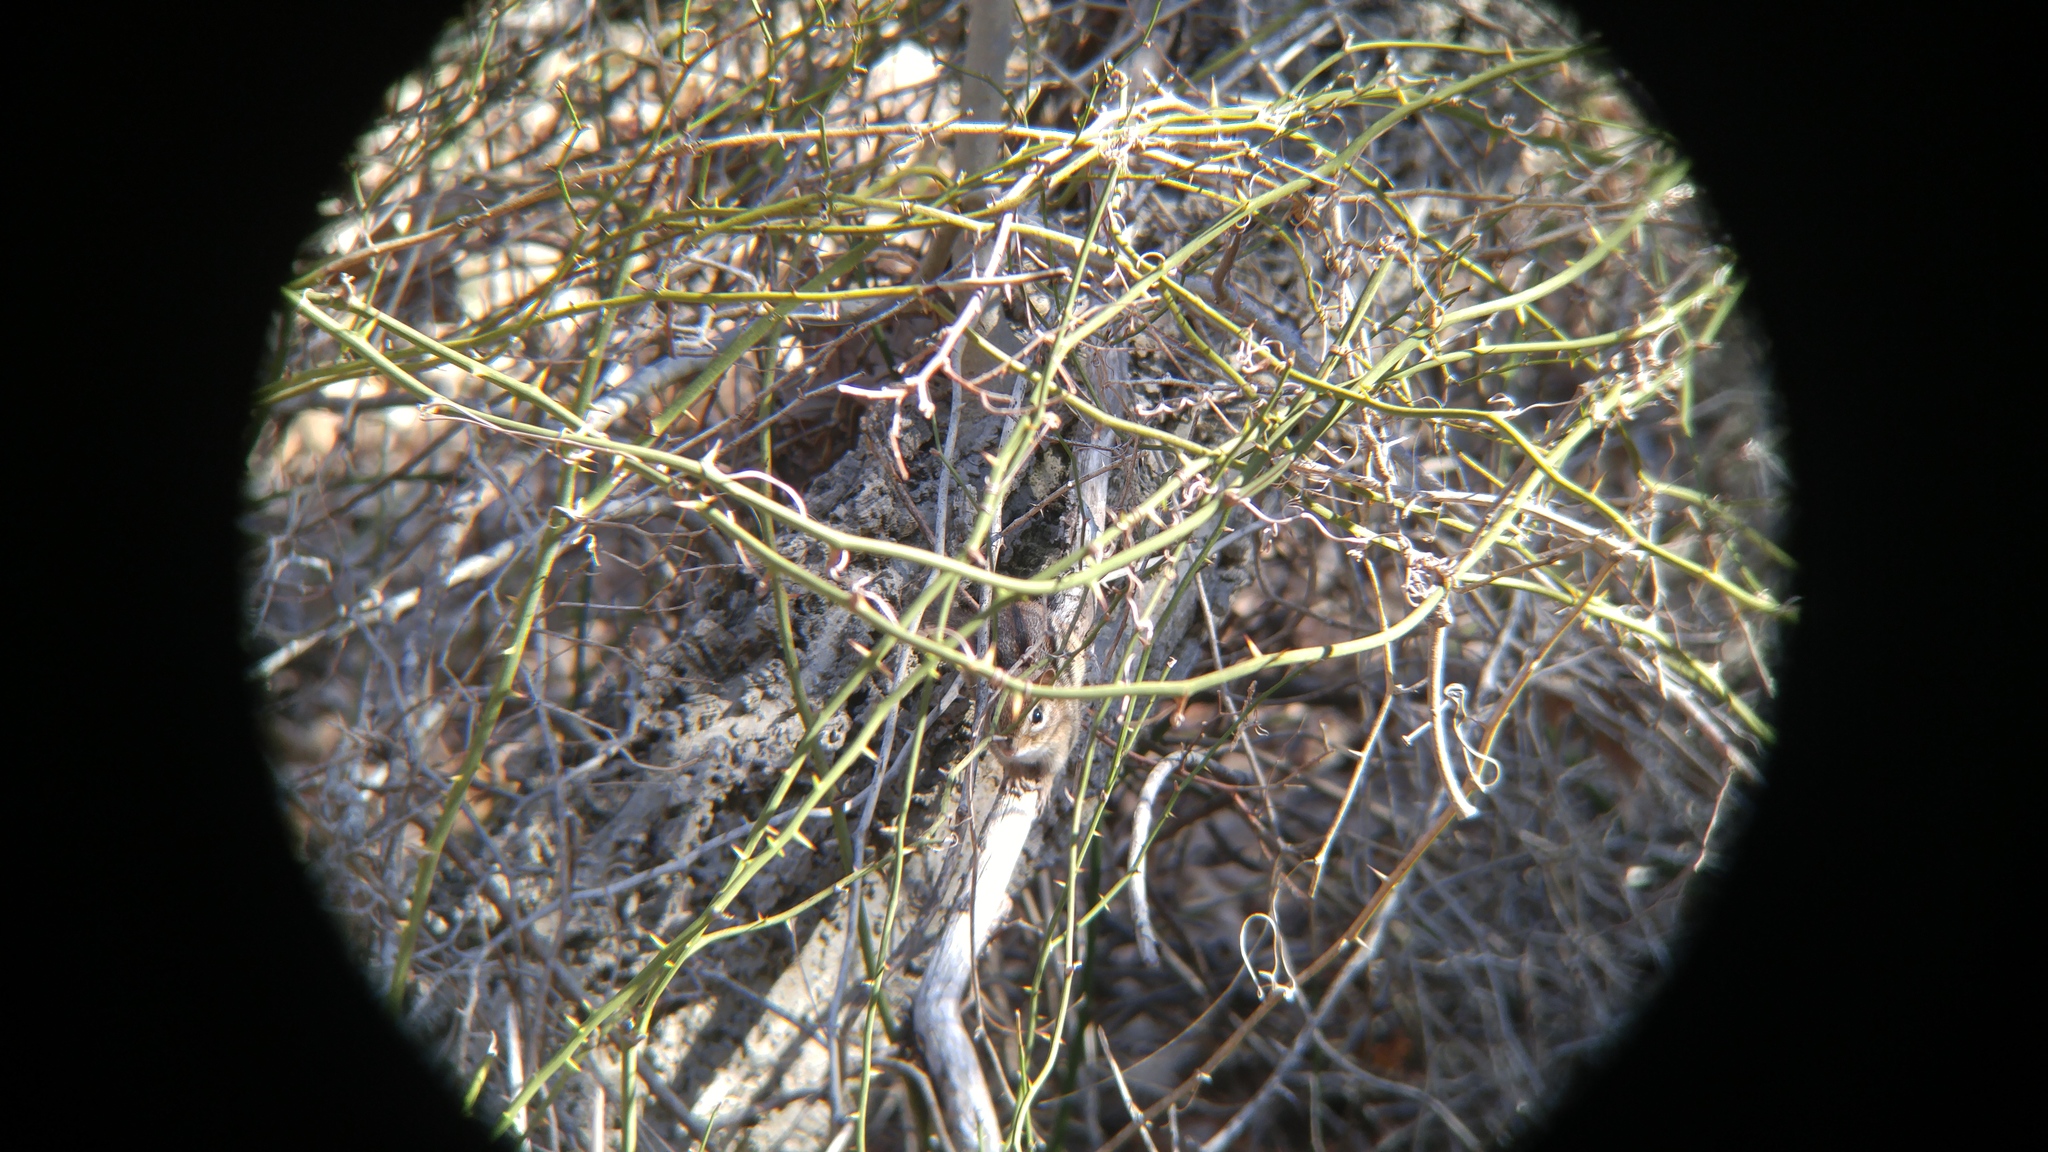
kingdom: Animalia
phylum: Chordata
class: Mammalia
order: Rodentia
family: Sciuridae
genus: Tamias
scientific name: Tamias striatus
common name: Eastern chipmunk
